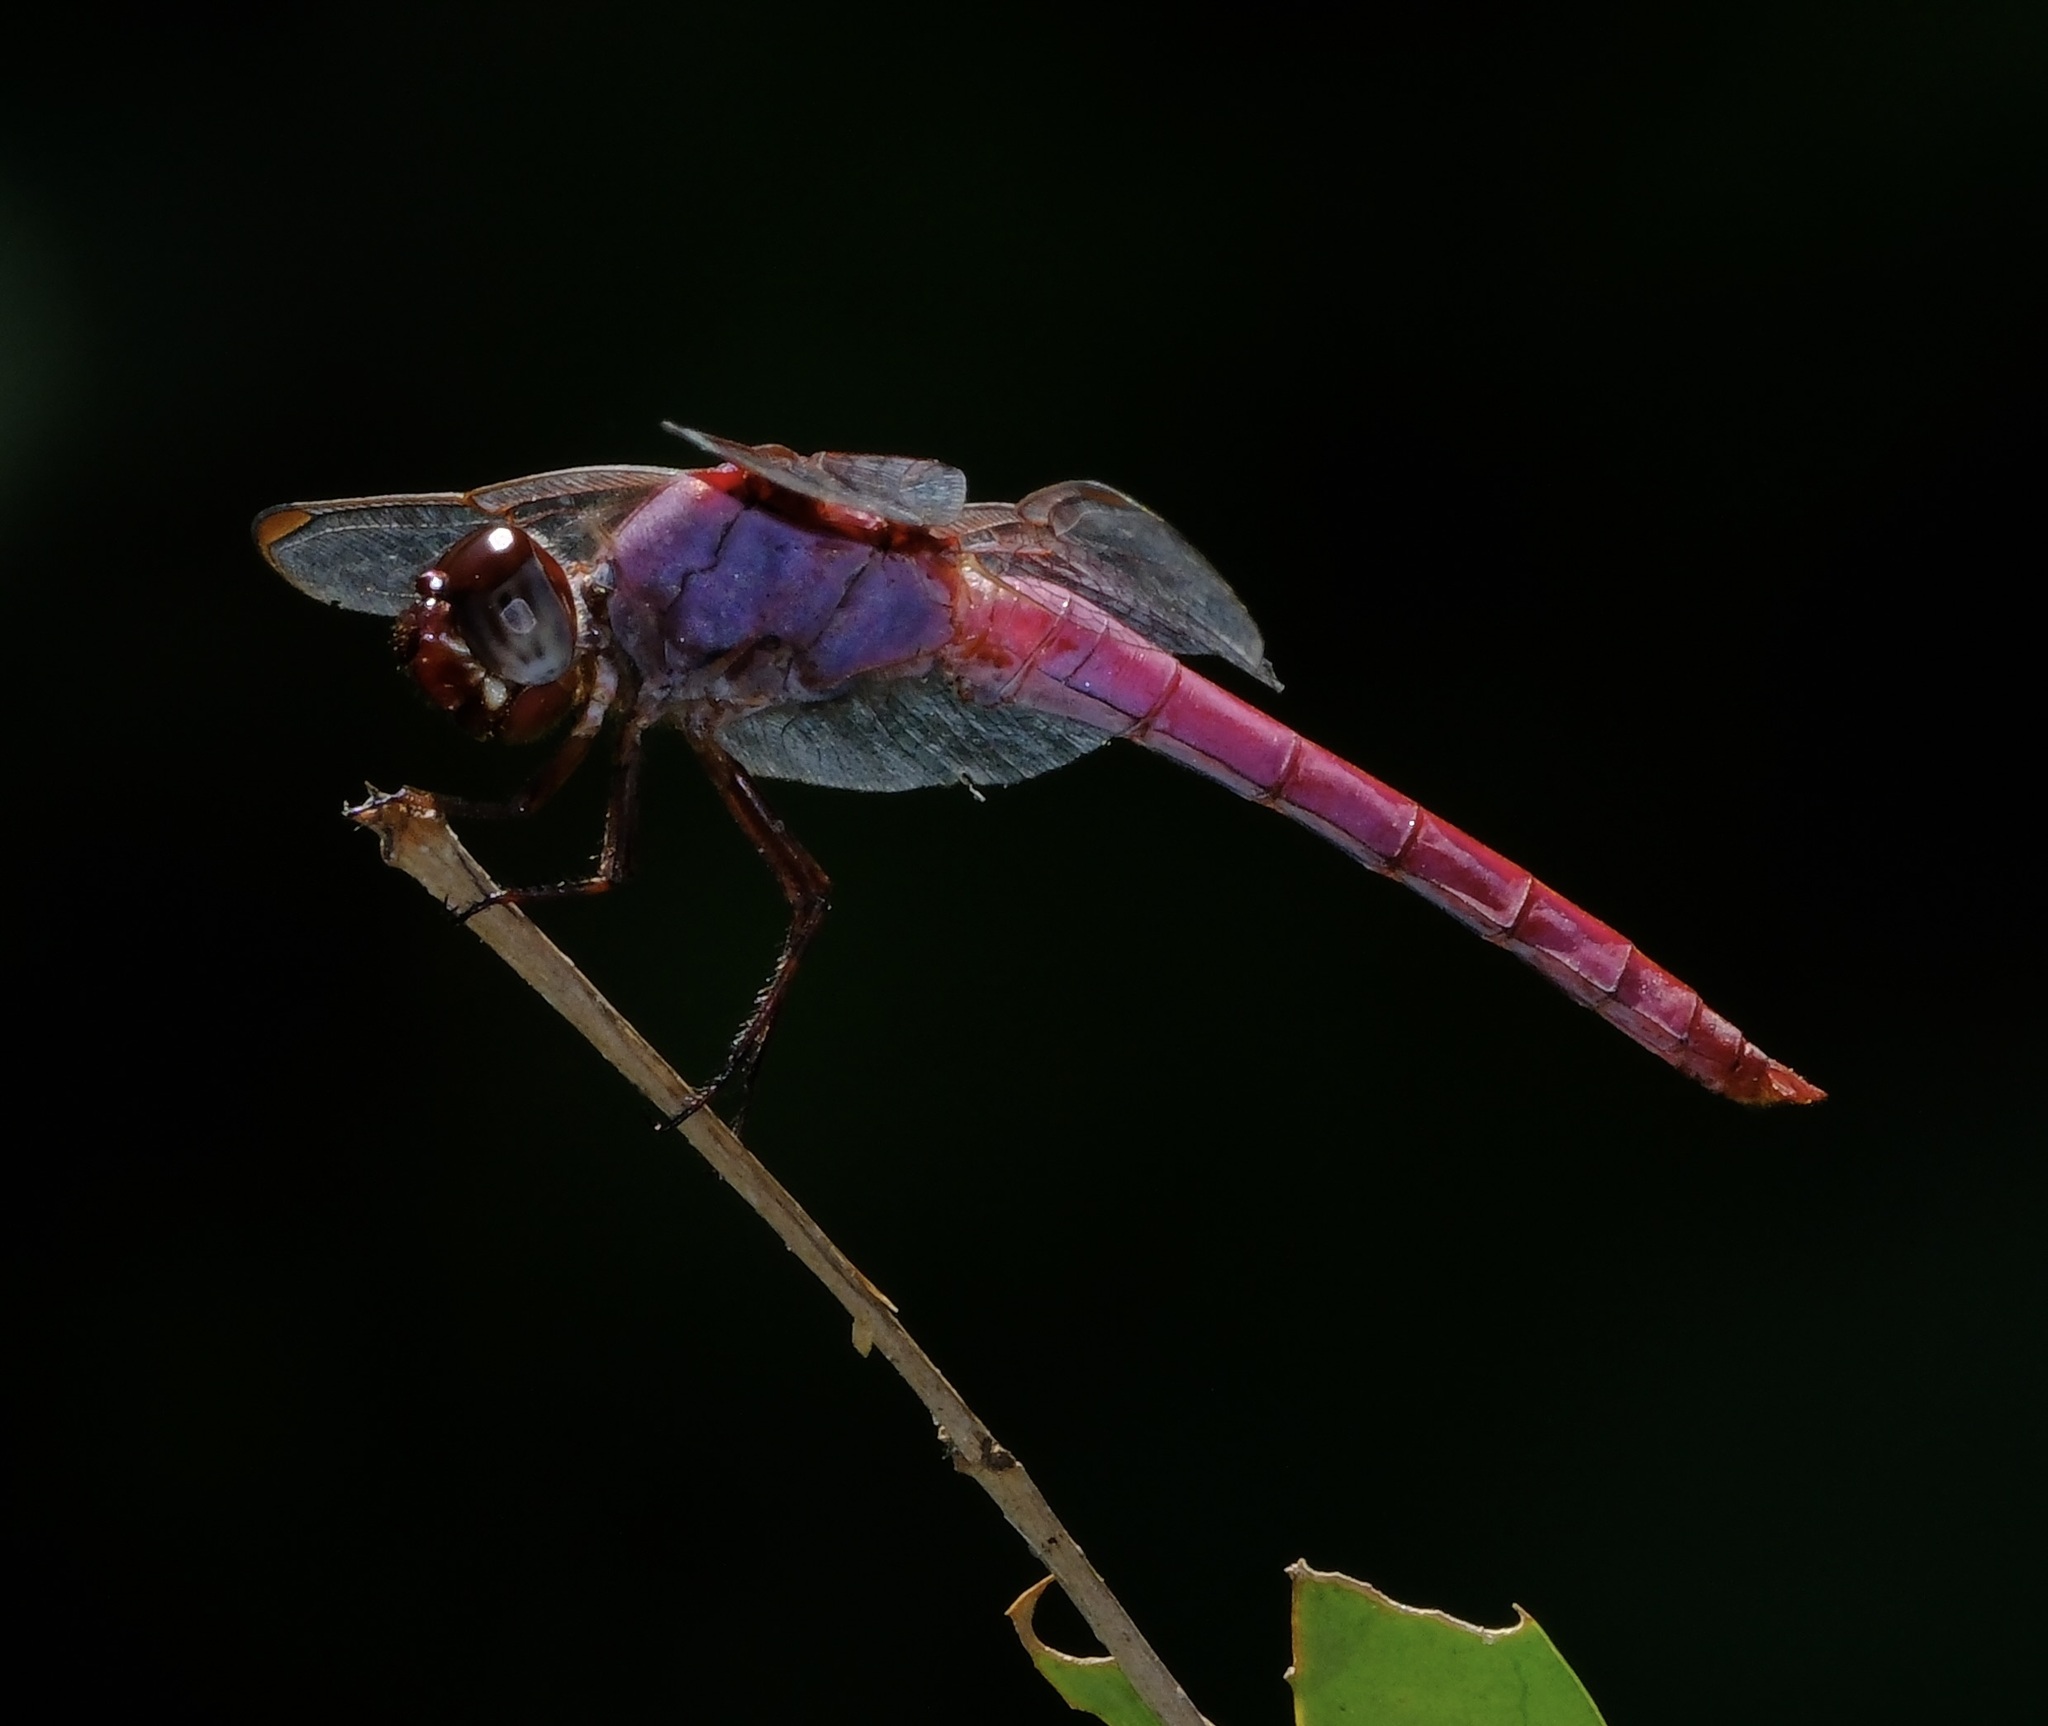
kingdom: Animalia
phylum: Arthropoda
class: Insecta
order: Odonata
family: Libellulidae
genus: Orthemis
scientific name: Orthemis ferruginea
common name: Roseate skimmer
